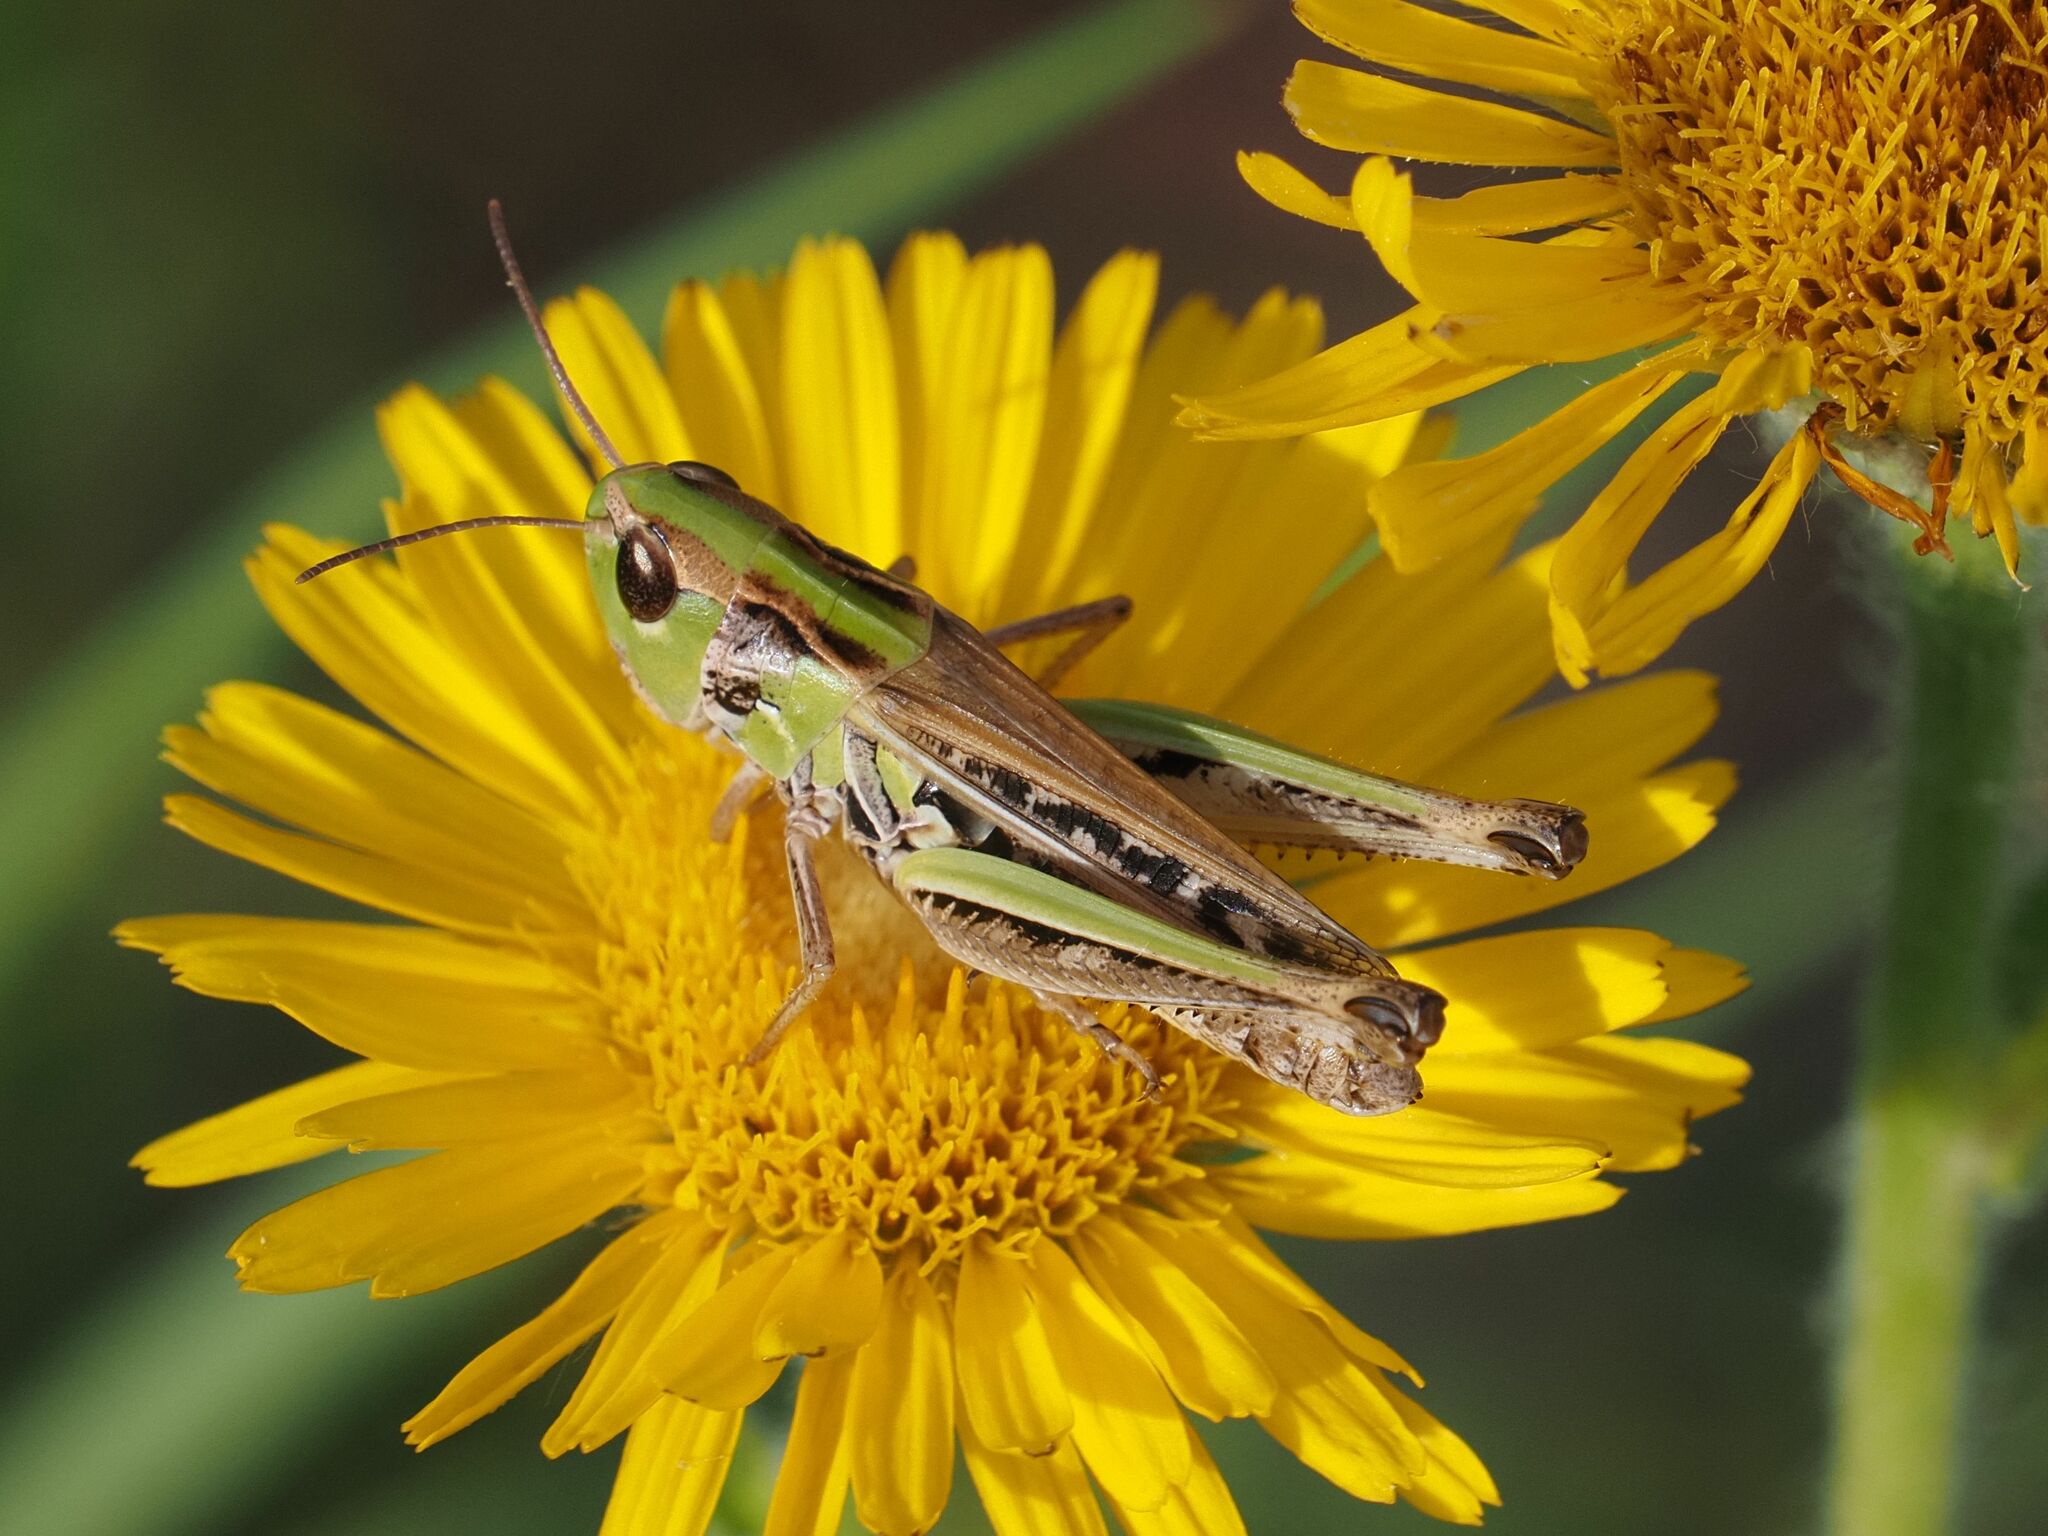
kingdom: Animalia
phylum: Arthropoda
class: Insecta
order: Orthoptera
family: Acrididae
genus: Stenobothrus
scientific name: Stenobothrus nigromaculatus
